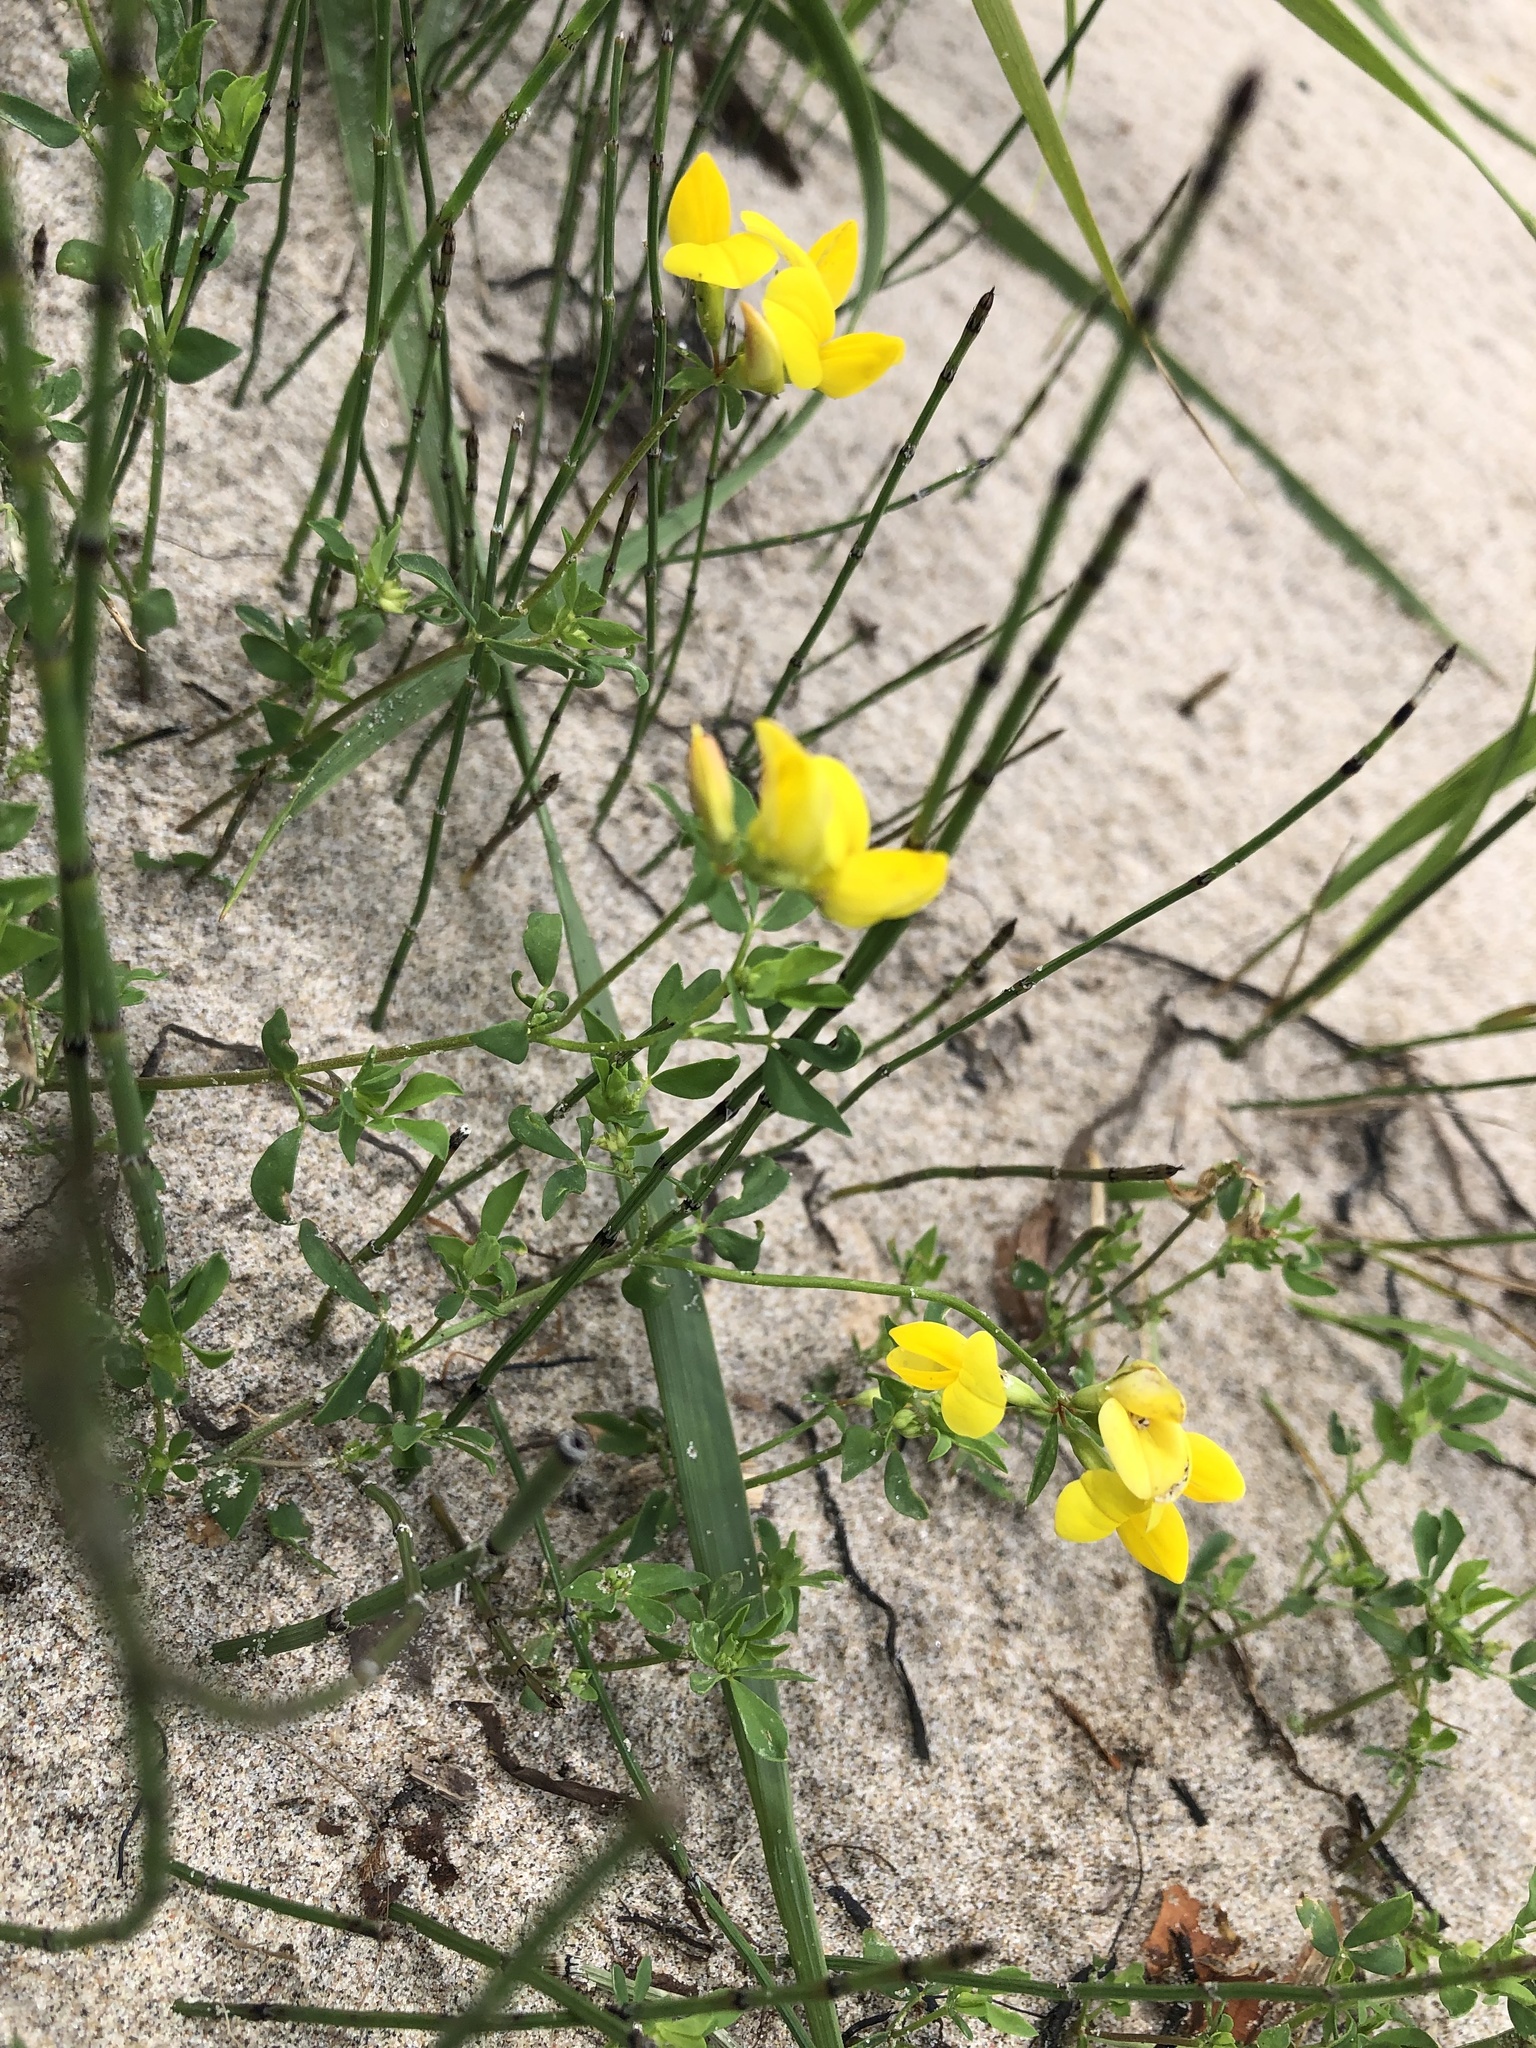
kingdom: Plantae
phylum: Tracheophyta
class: Magnoliopsida
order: Fabales
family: Fabaceae
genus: Lotus
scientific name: Lotus corniculatus
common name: Common bird's-foot-trefoil
